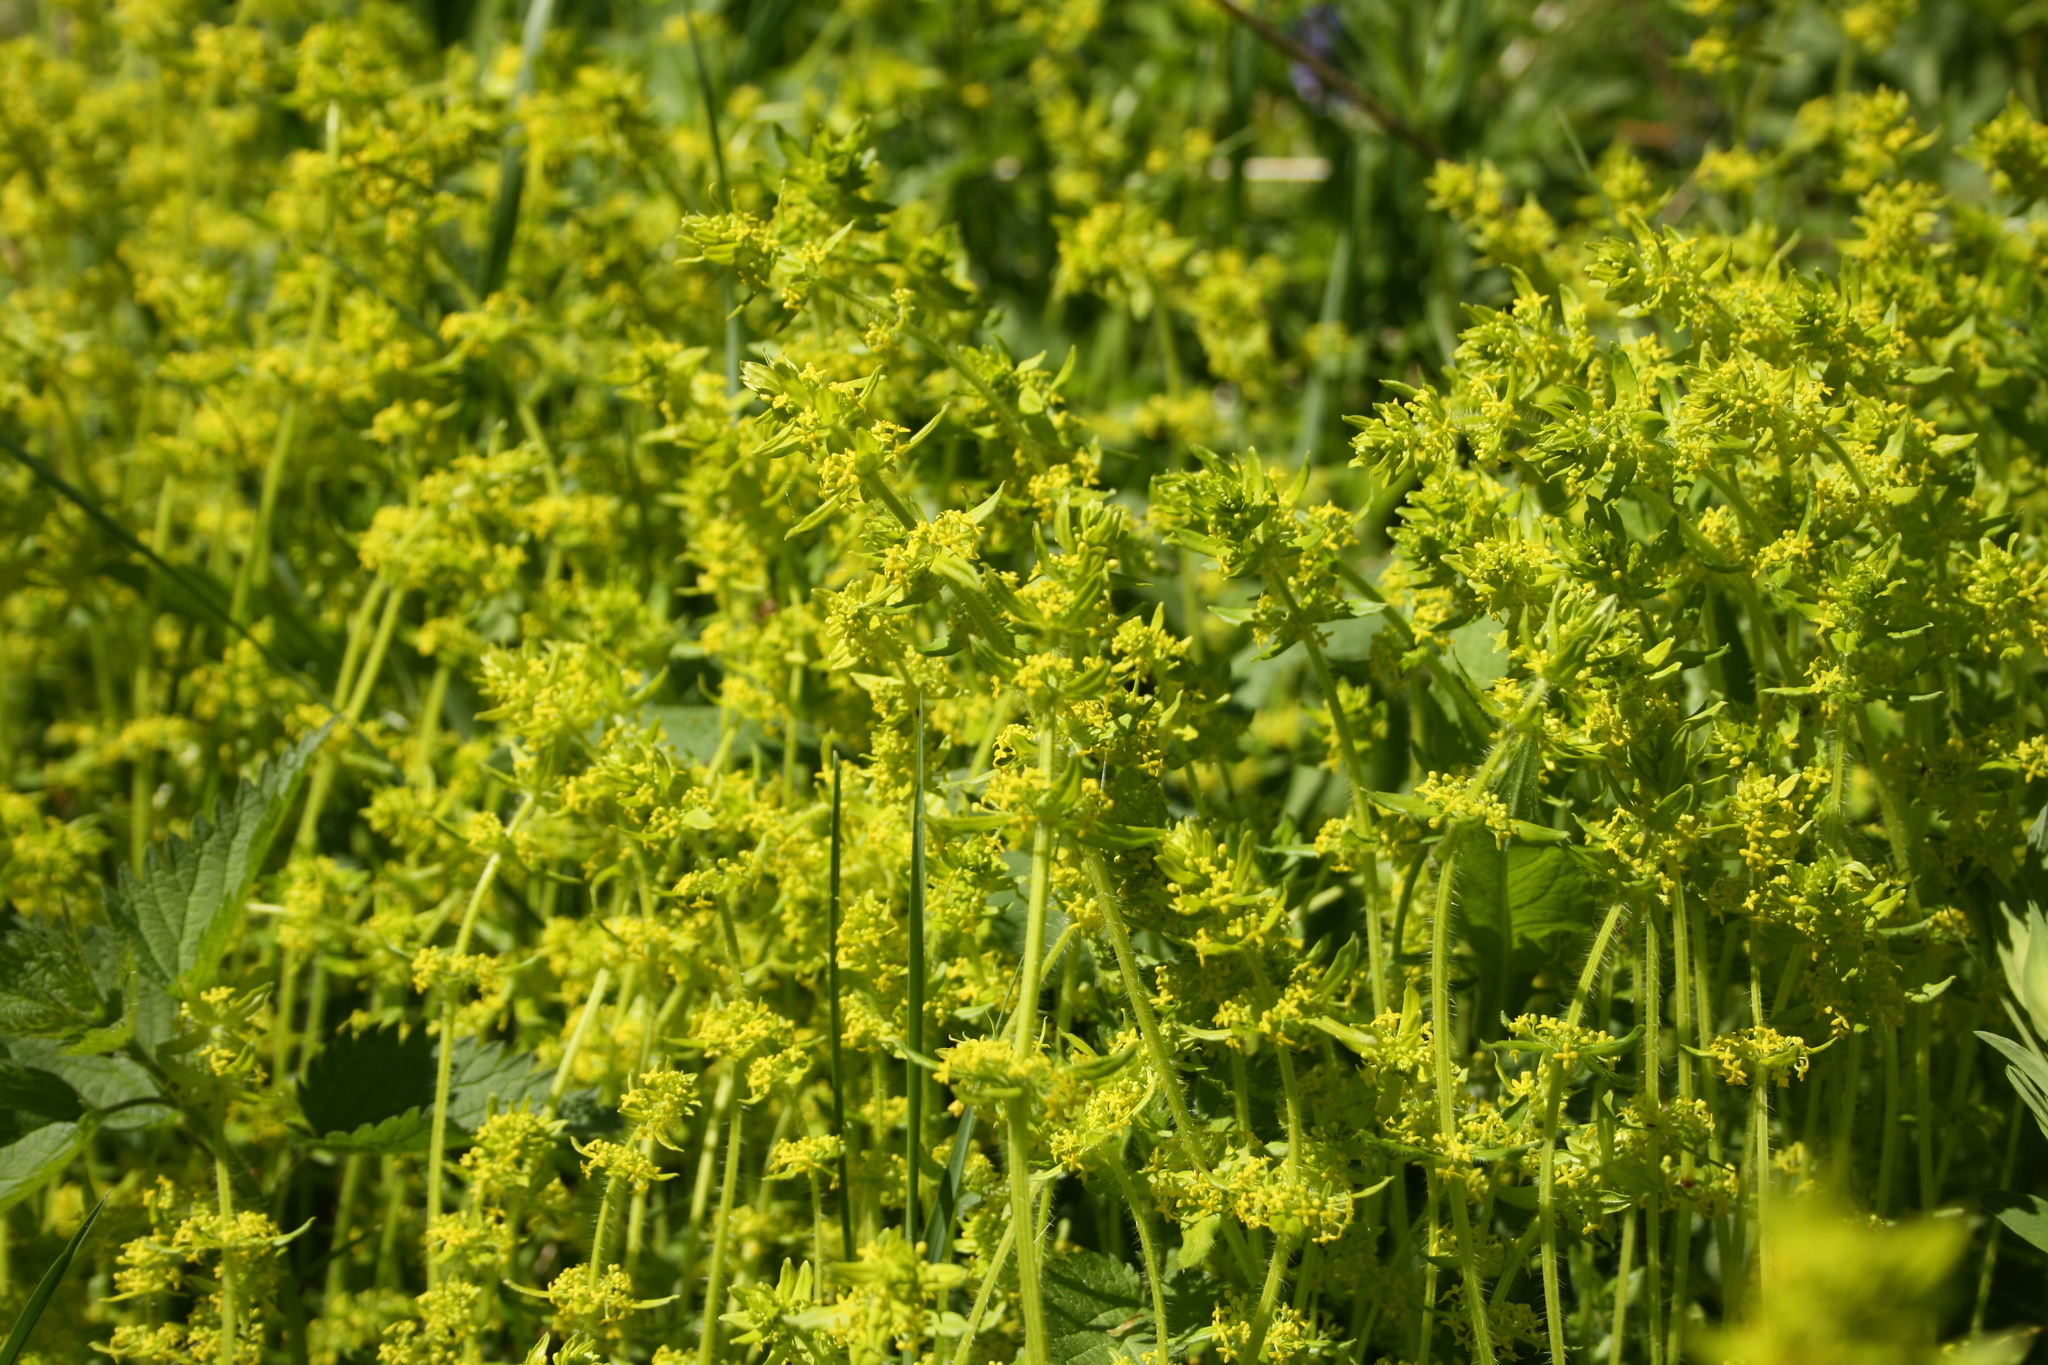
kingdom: Plantae
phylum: Tracheophyta
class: Magnoliopsida
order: Gentianales
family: Rubiaceae
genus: Cruciata
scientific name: Cruciata laevipes
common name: Crosswort
